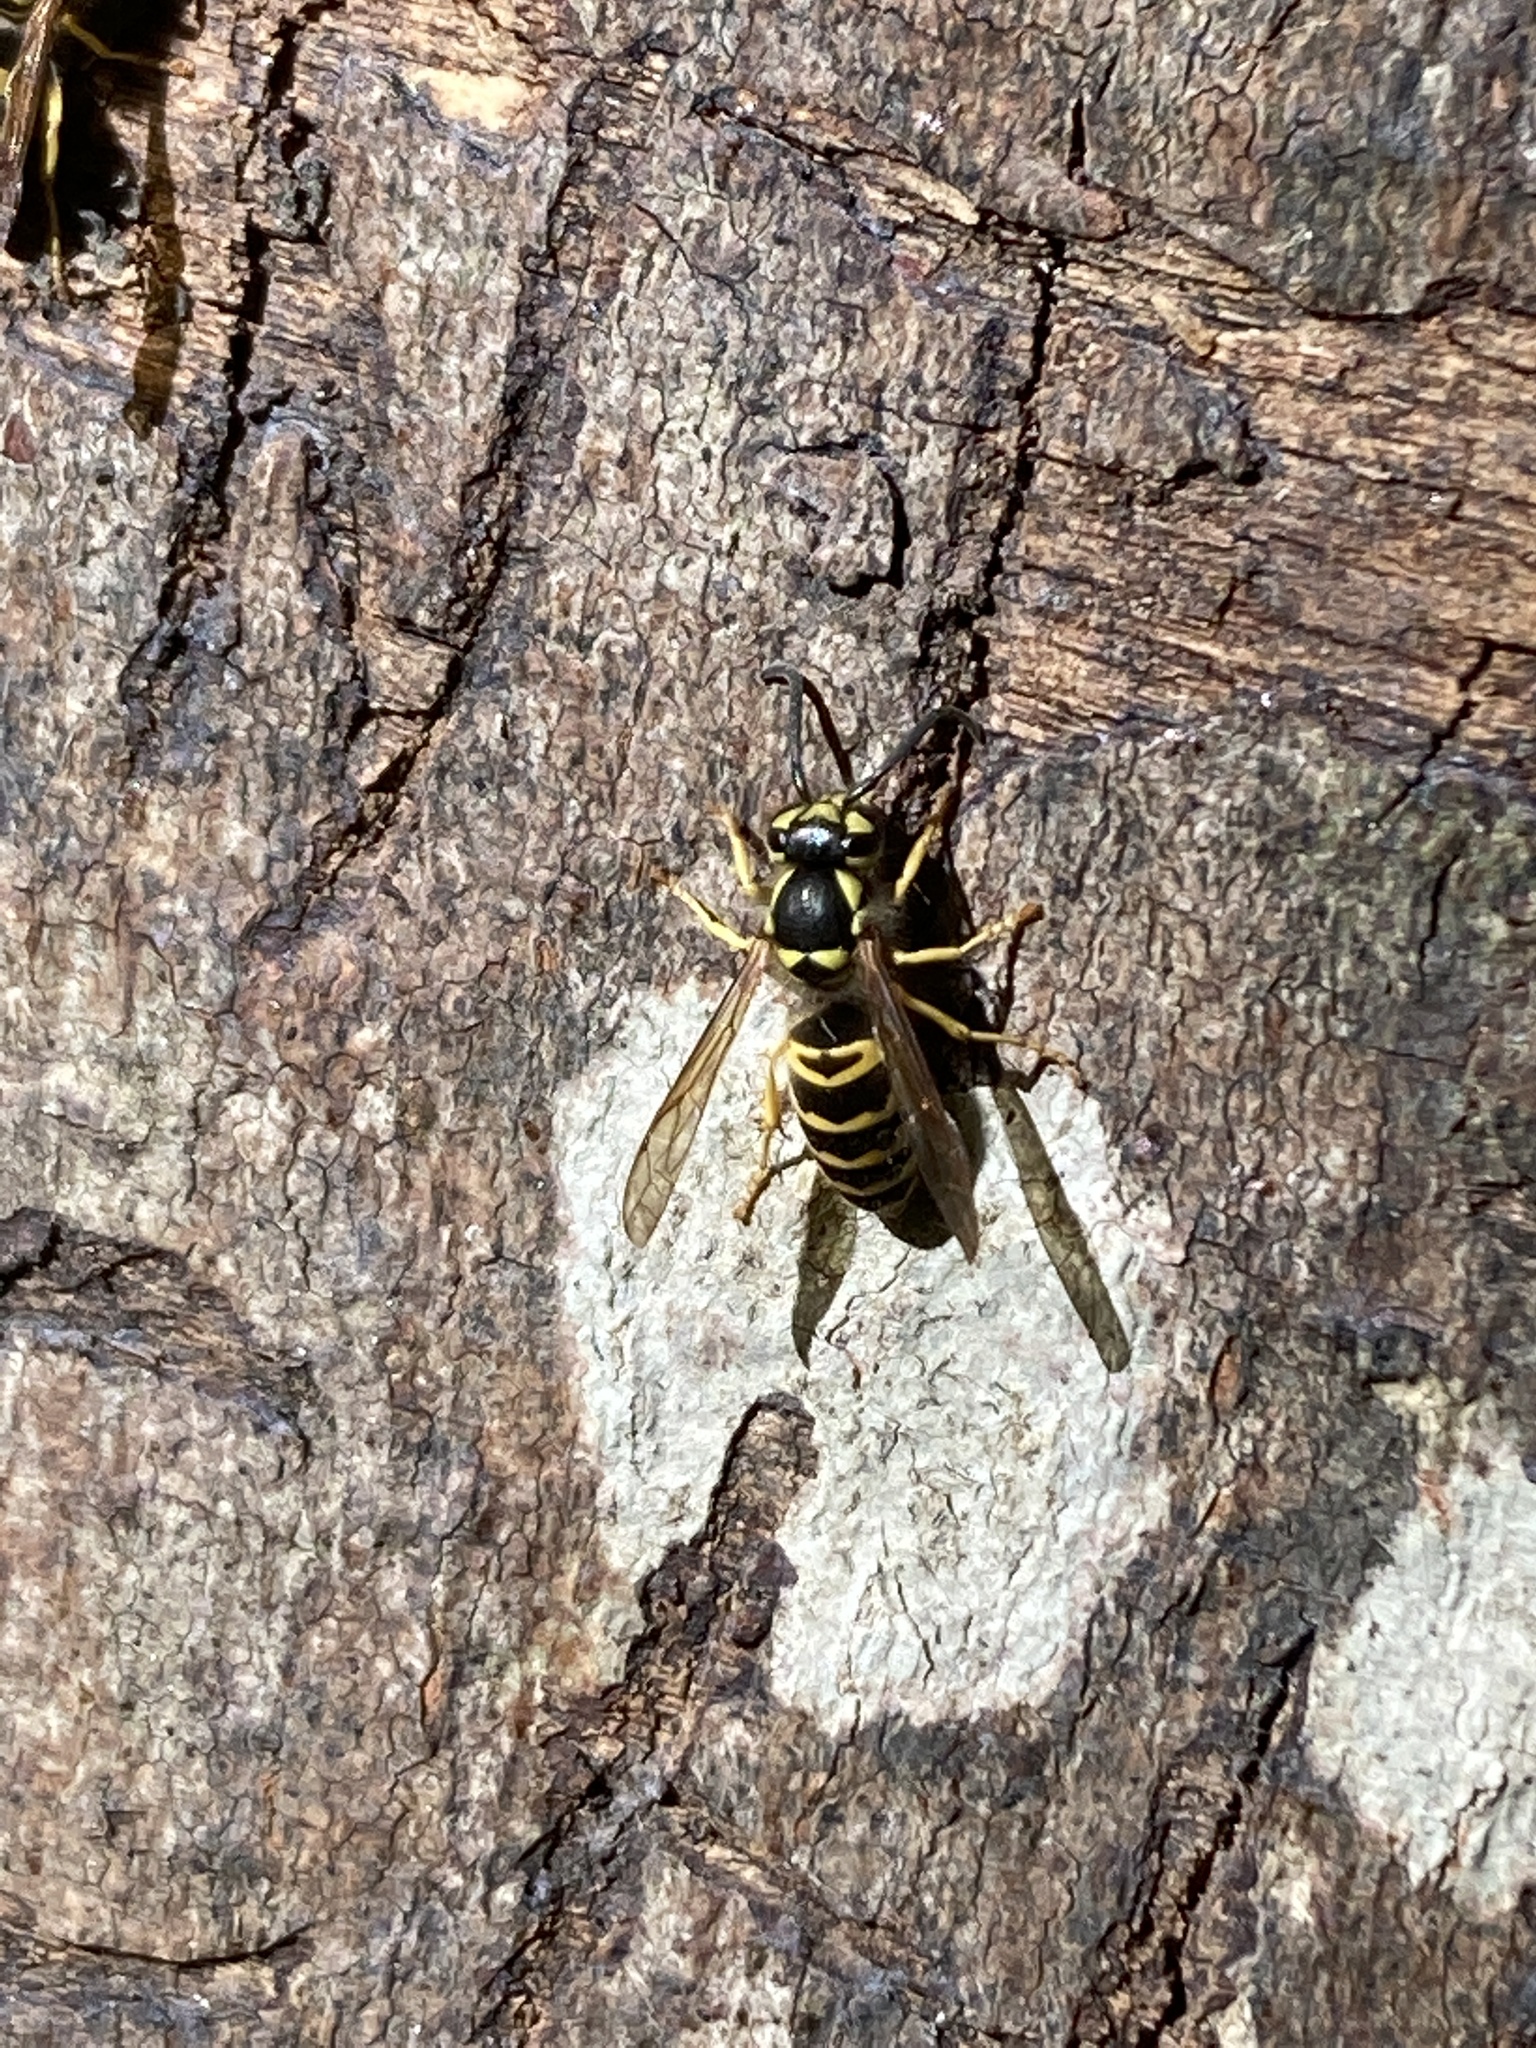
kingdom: Animalia
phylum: Arthropoda
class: Insecta
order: Hymenoptera
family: Vespidae
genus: Vespula
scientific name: Vespula maculifrons
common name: Eastern yellowjacket
